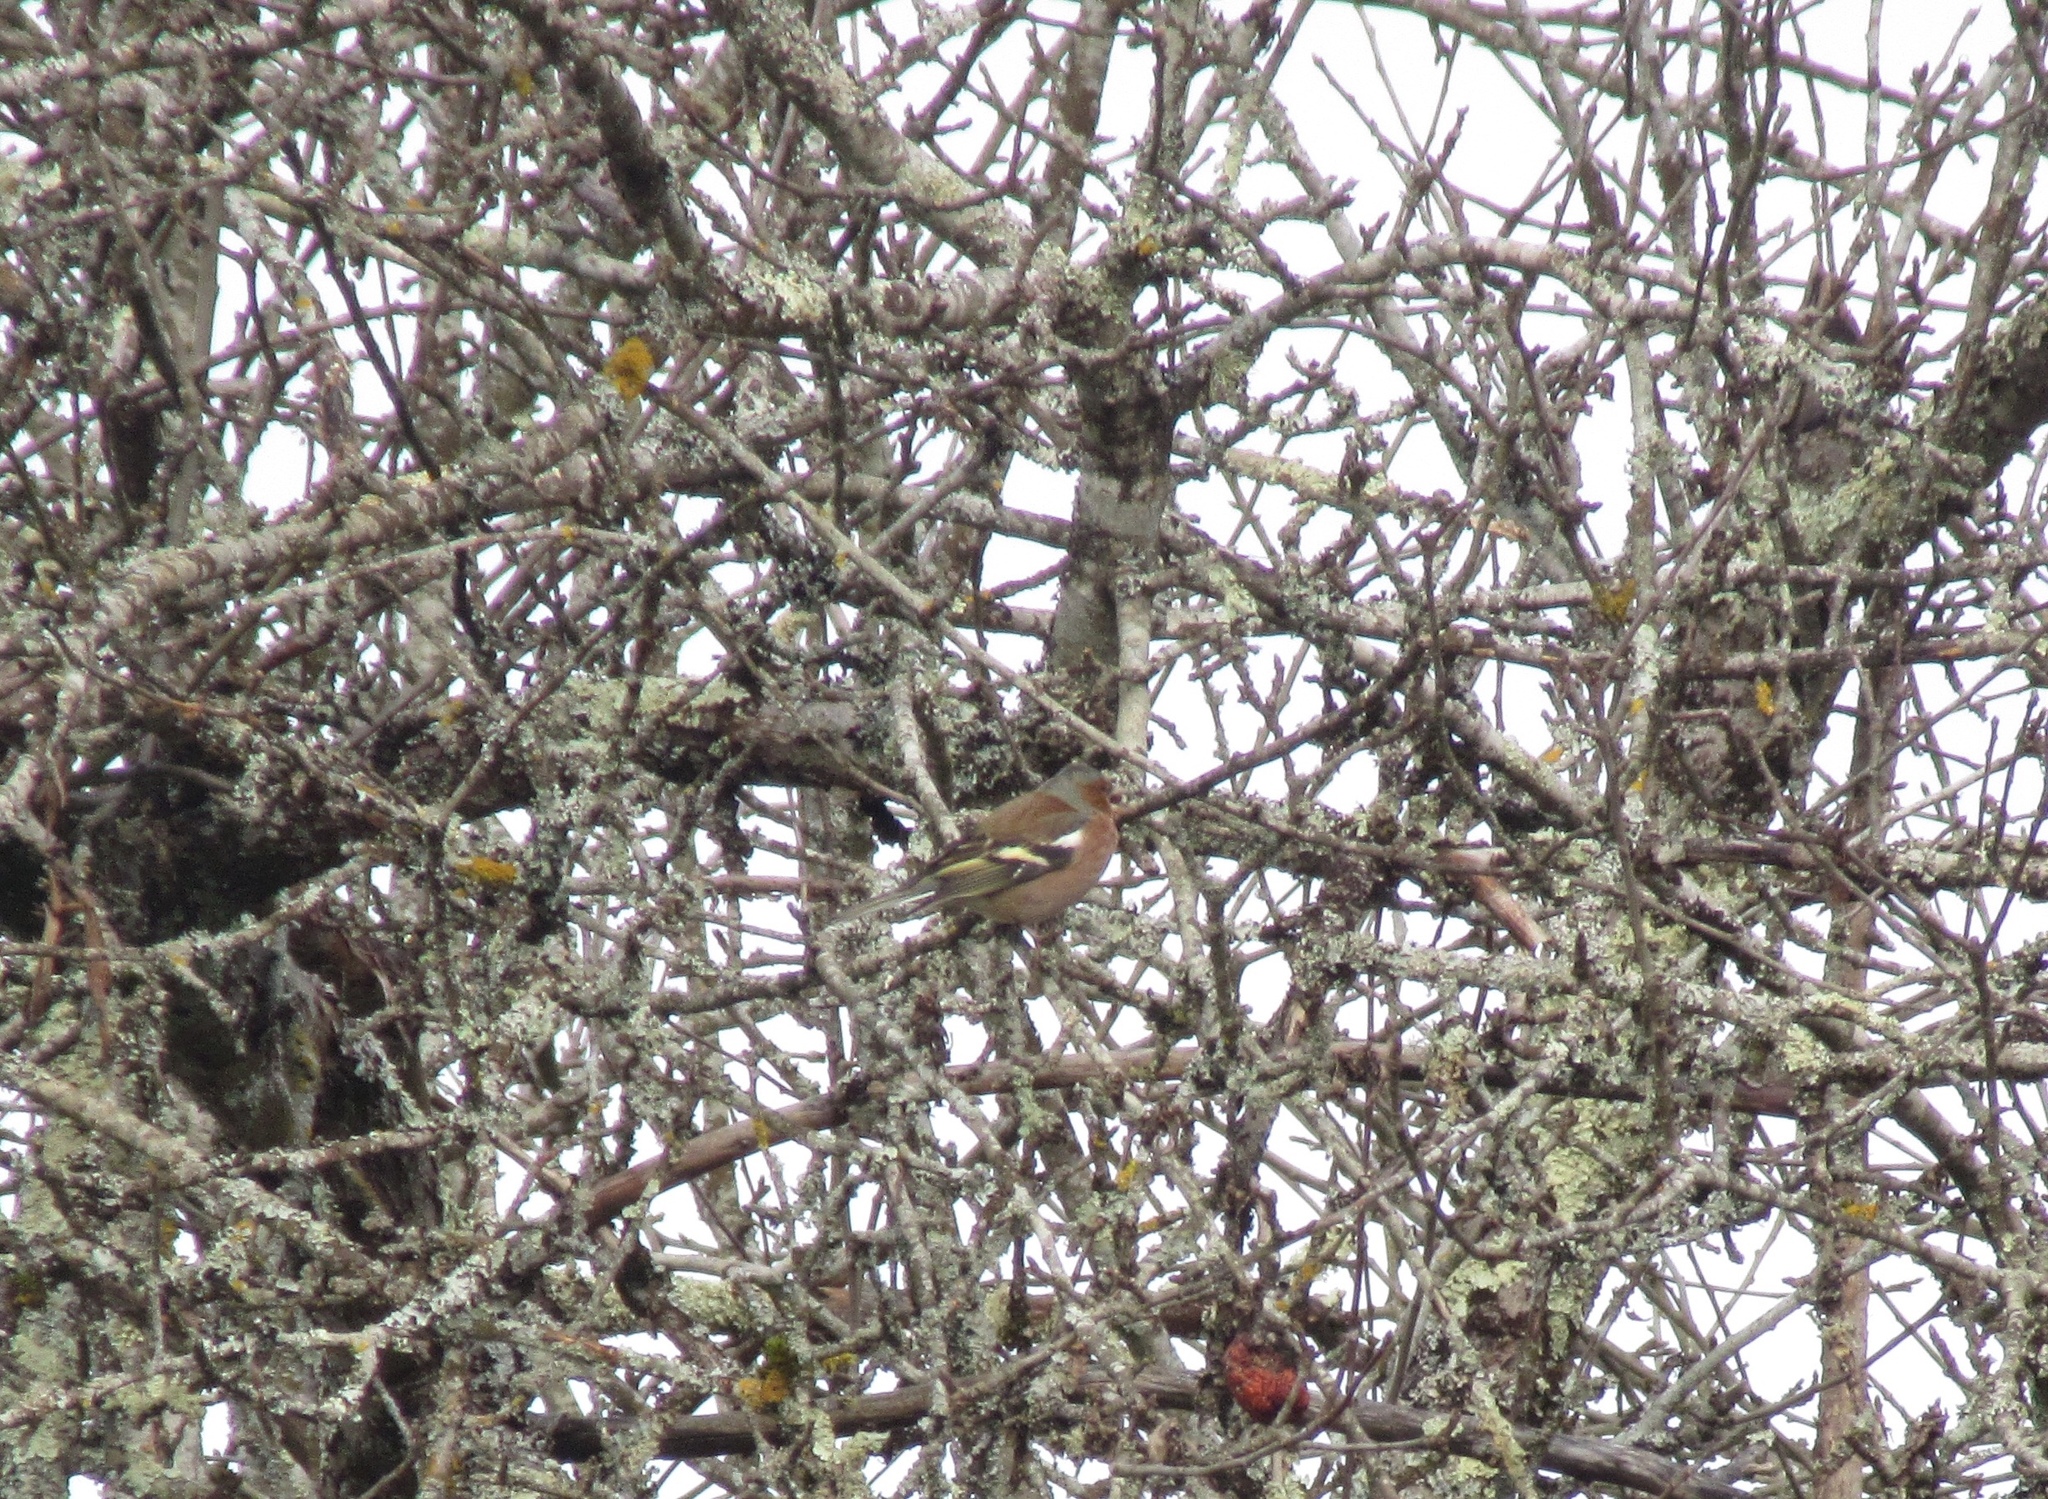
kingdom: Animalia
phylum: Chordata
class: Aves
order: Passeriformes
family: Fringillidae
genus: Fringilla
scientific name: Fringilla coelebs
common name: Common chaffinch
